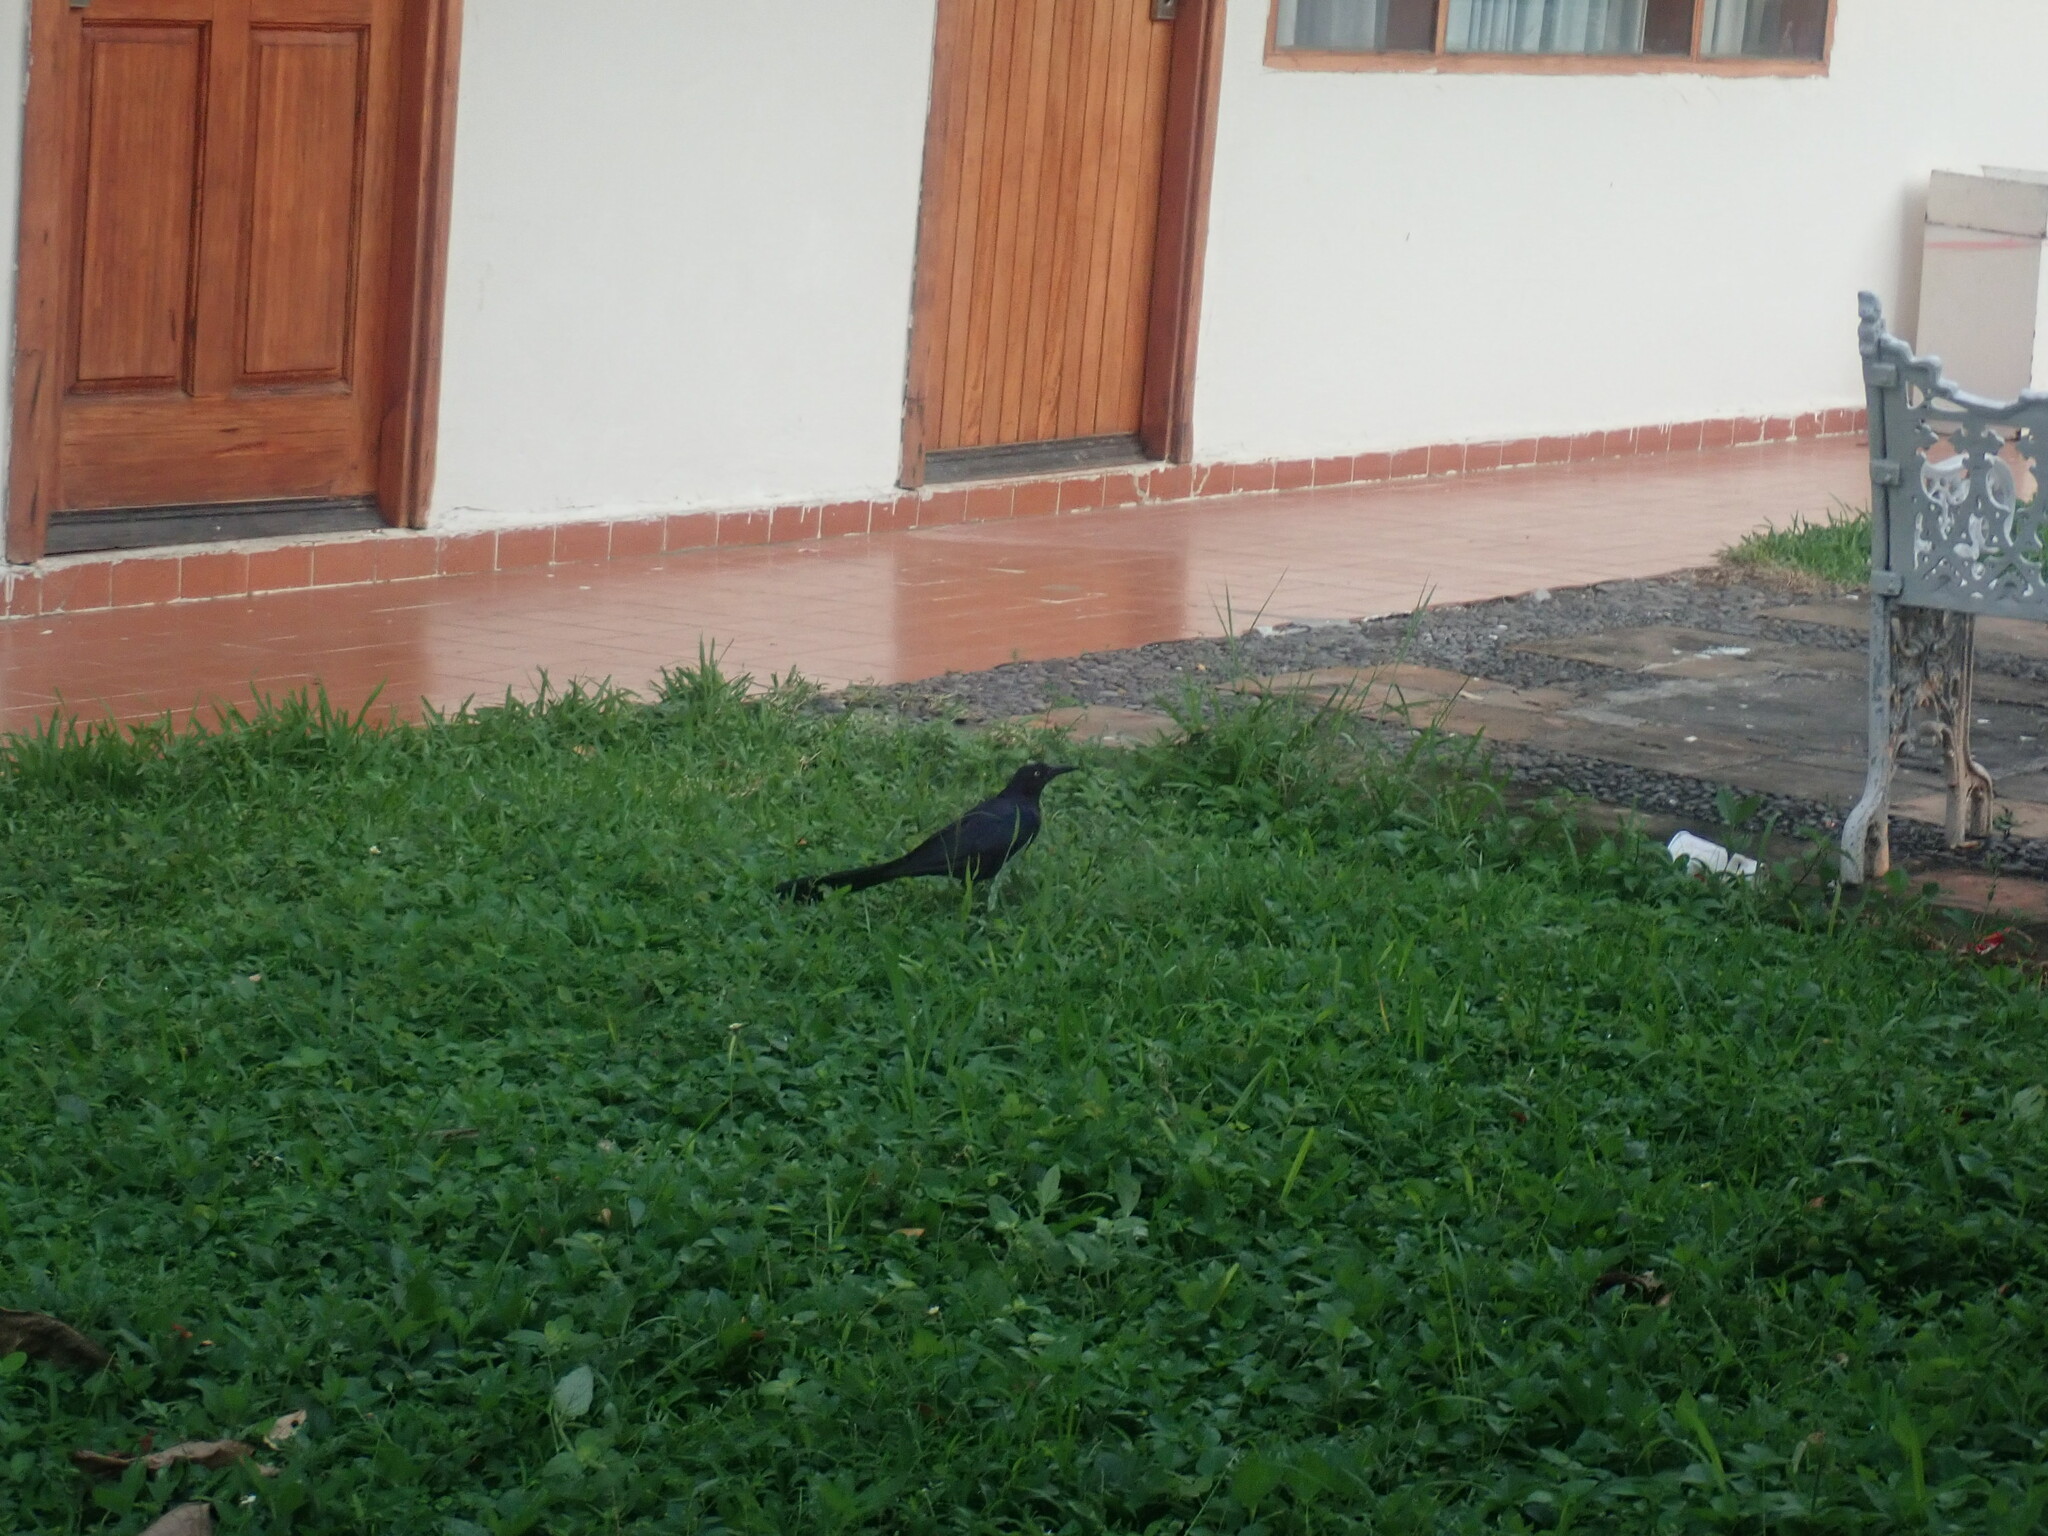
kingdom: Animalia
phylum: Chordata
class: Aves
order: Passeriformes
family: Icteridae
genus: Quiscalus
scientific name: Quiscalus mexicanus
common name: Great-tailed grackle
